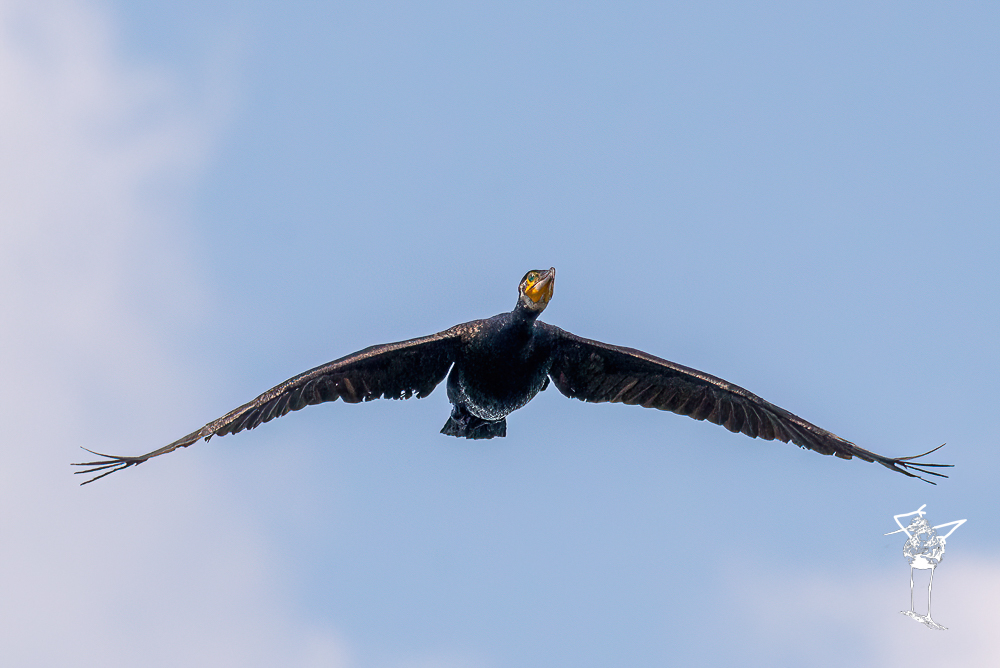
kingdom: Animalia
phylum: Chordata
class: Aves
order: Suliformes
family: Phalacrocoracidae
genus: Phalacrocorax
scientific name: Phalacrocorax carbo
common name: Great cormorant
